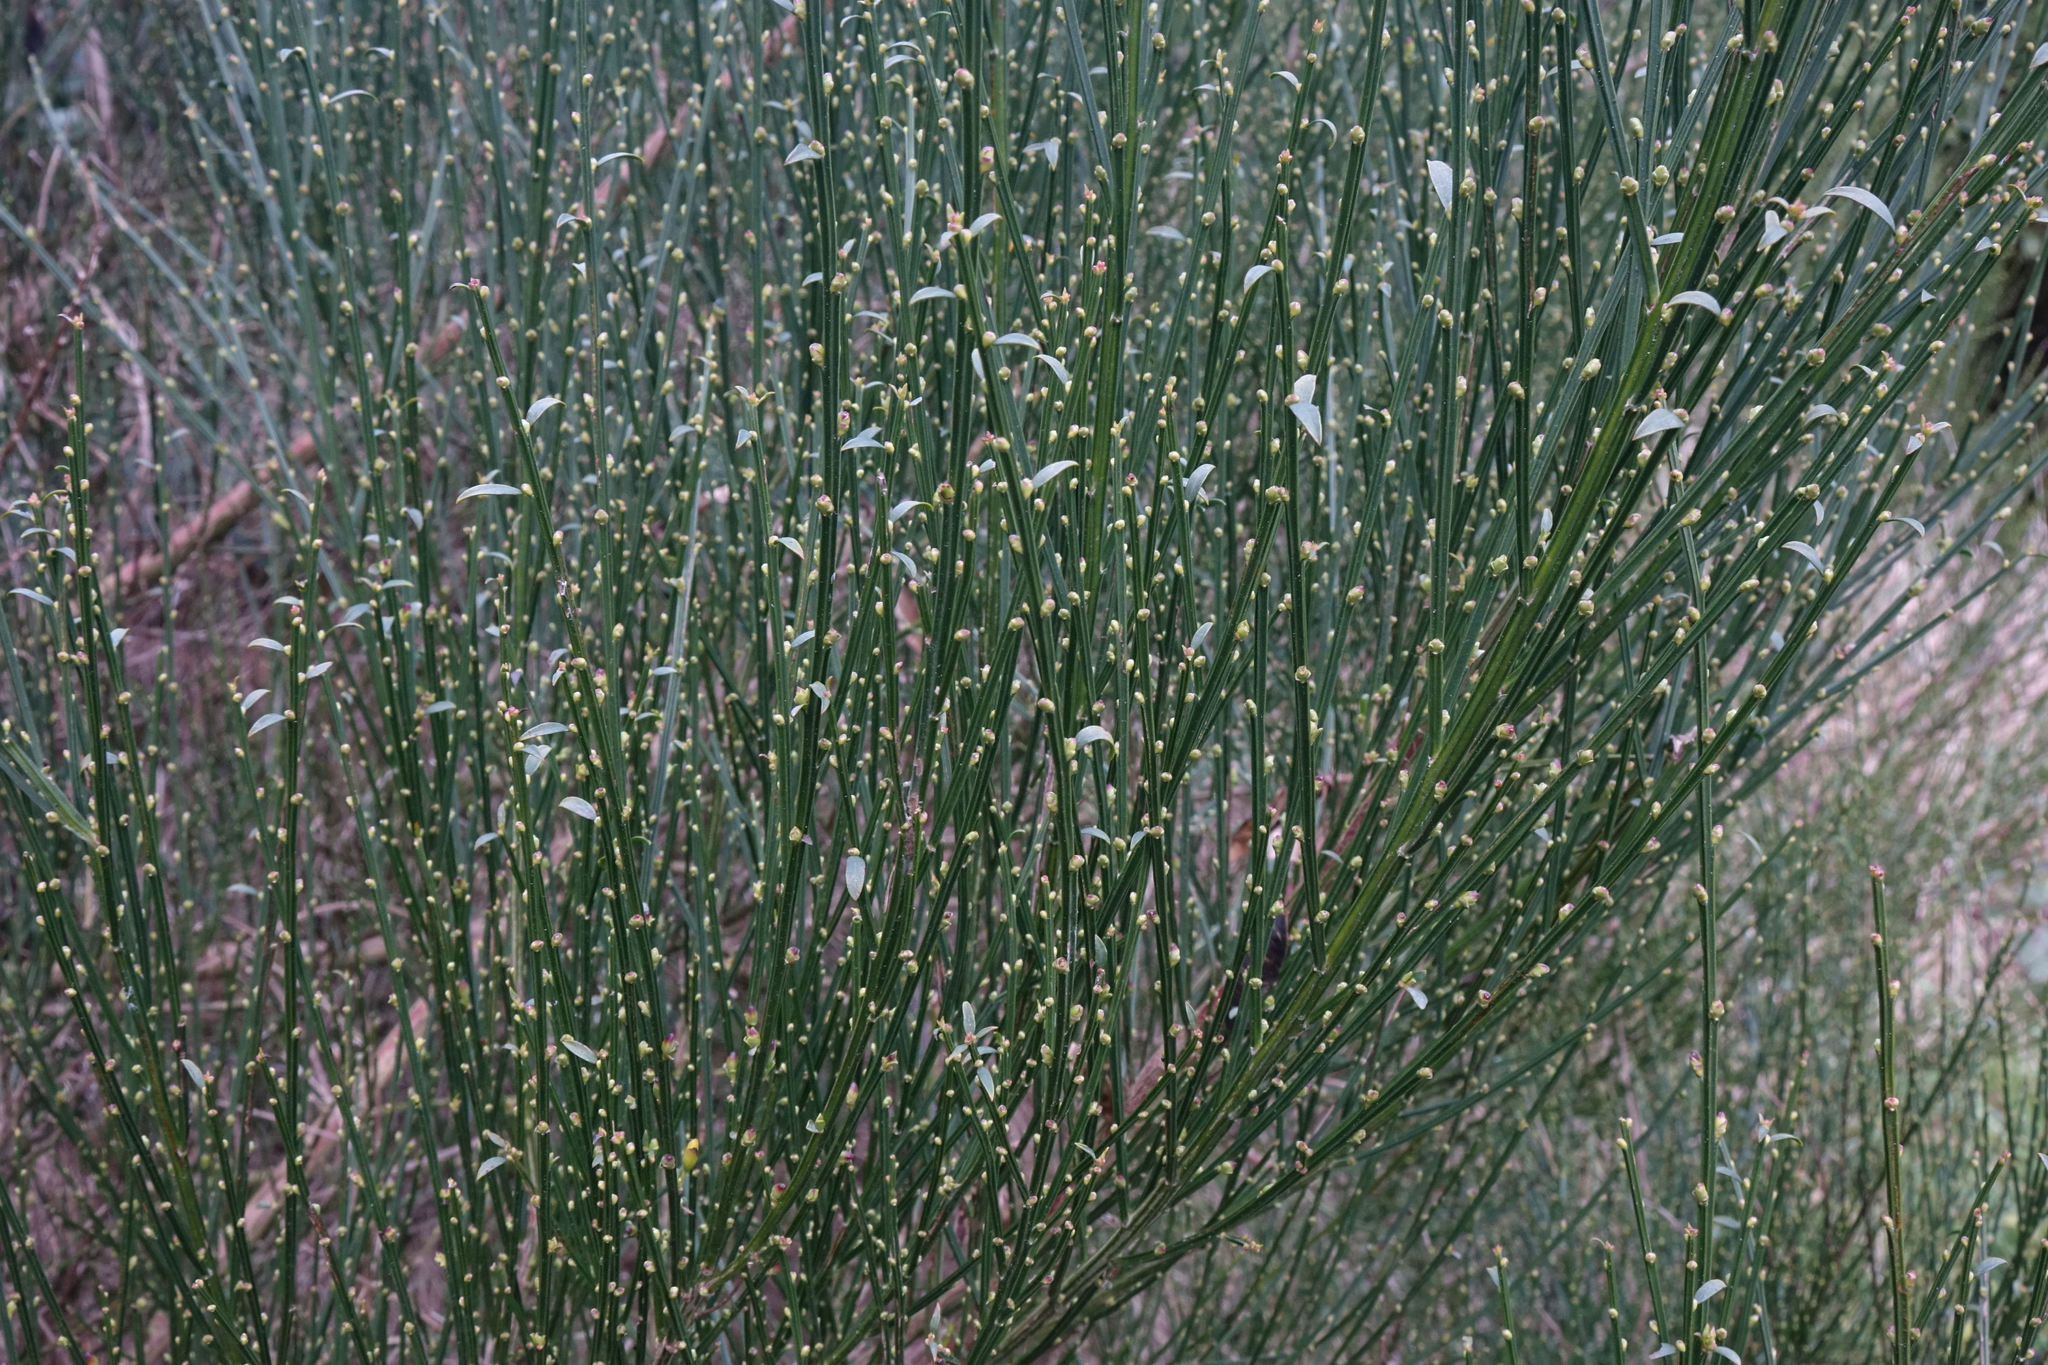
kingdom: Plantae
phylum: Tracheophyta
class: Magnoliopsida
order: Fabales
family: Fabaceae
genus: Cytisus
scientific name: Cytisus scoparius
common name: Scotch broom
